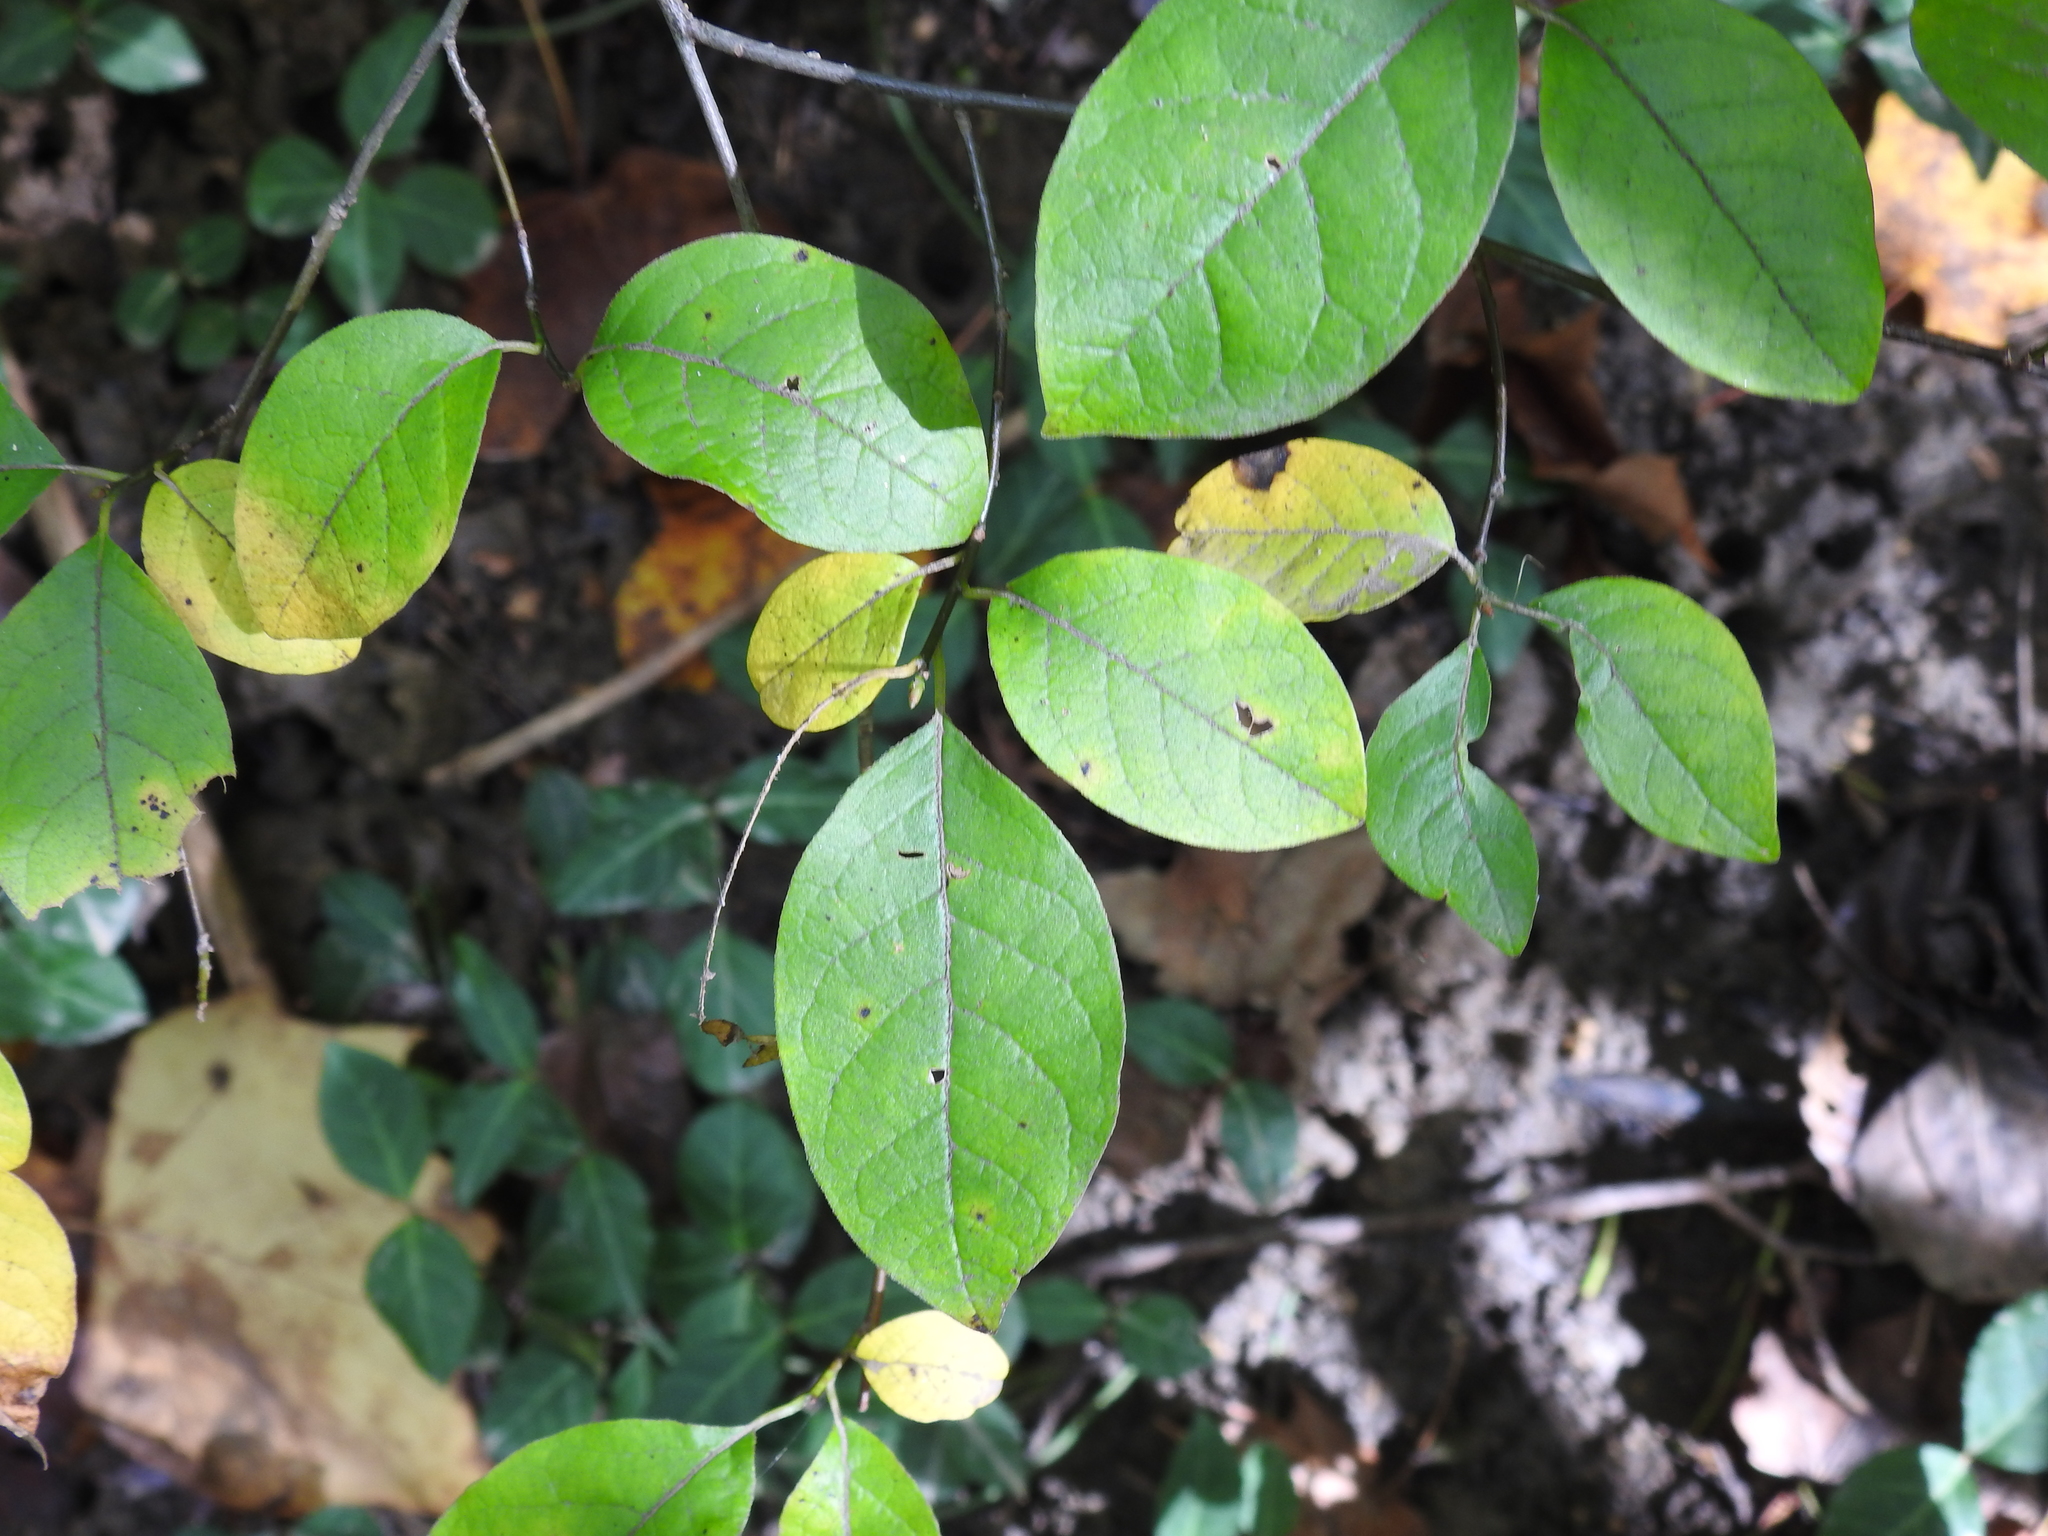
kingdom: Plantae
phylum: Tracheophyta
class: Magnoliopsida
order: Laurales
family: Lauraceae
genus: Lindera
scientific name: Lindera benzoin
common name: Spicebush
